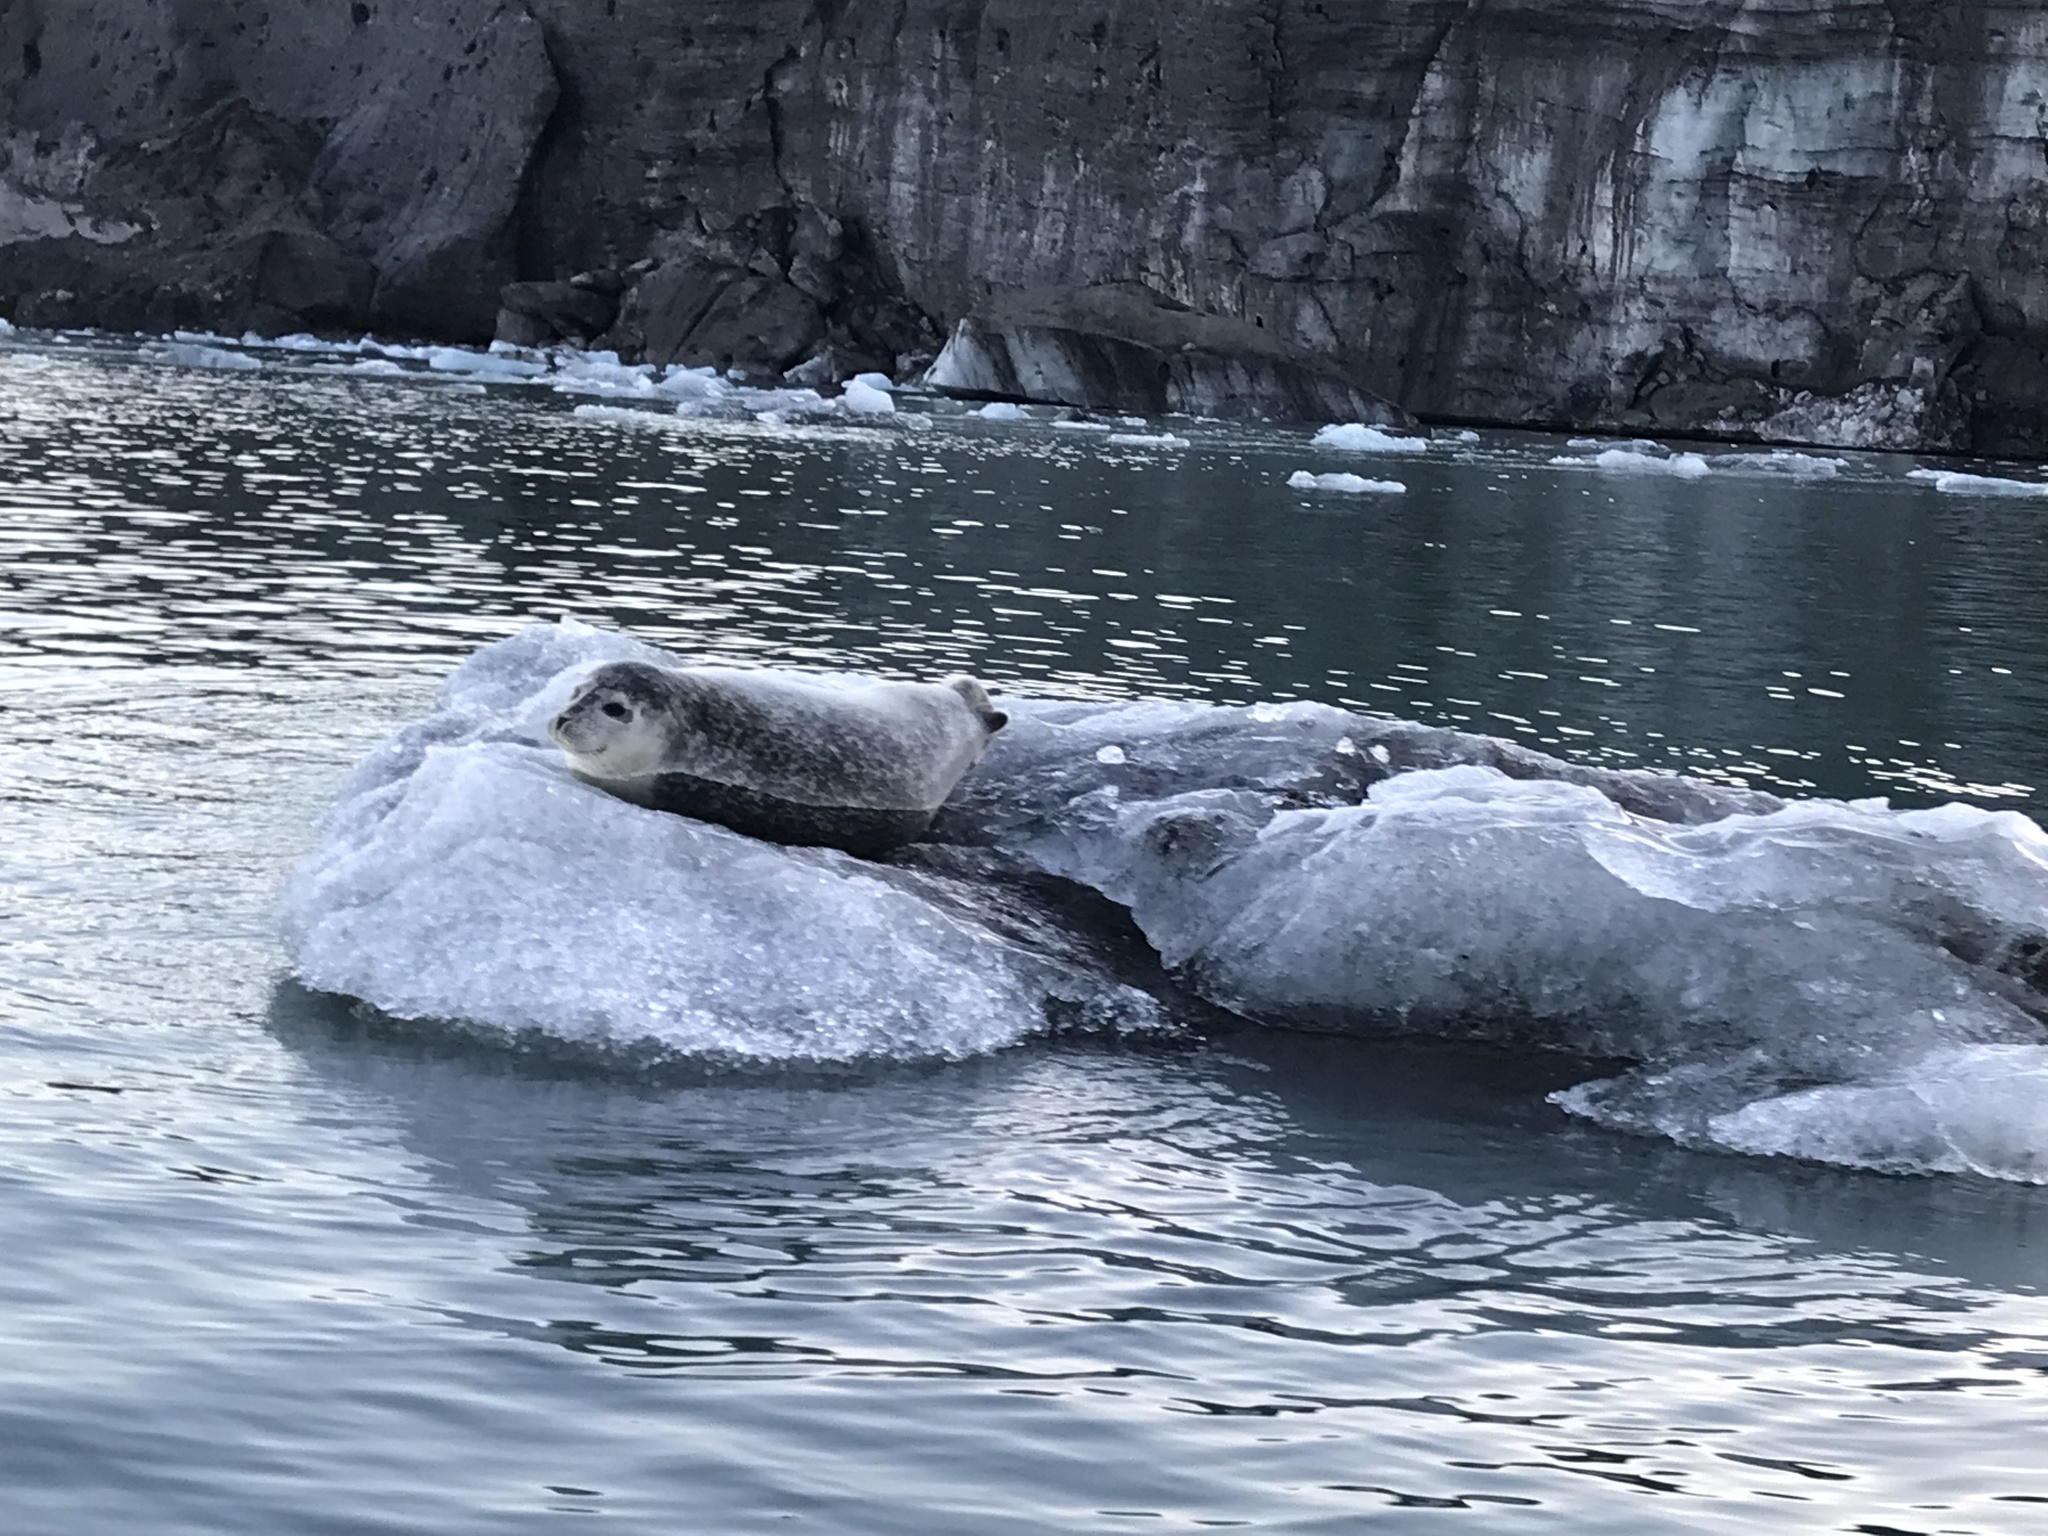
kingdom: Animalia
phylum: Chordata
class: Mammalia
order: Carnivora
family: Phocidae
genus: Phoca
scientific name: Phoca vitulina
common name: Harbor seal
